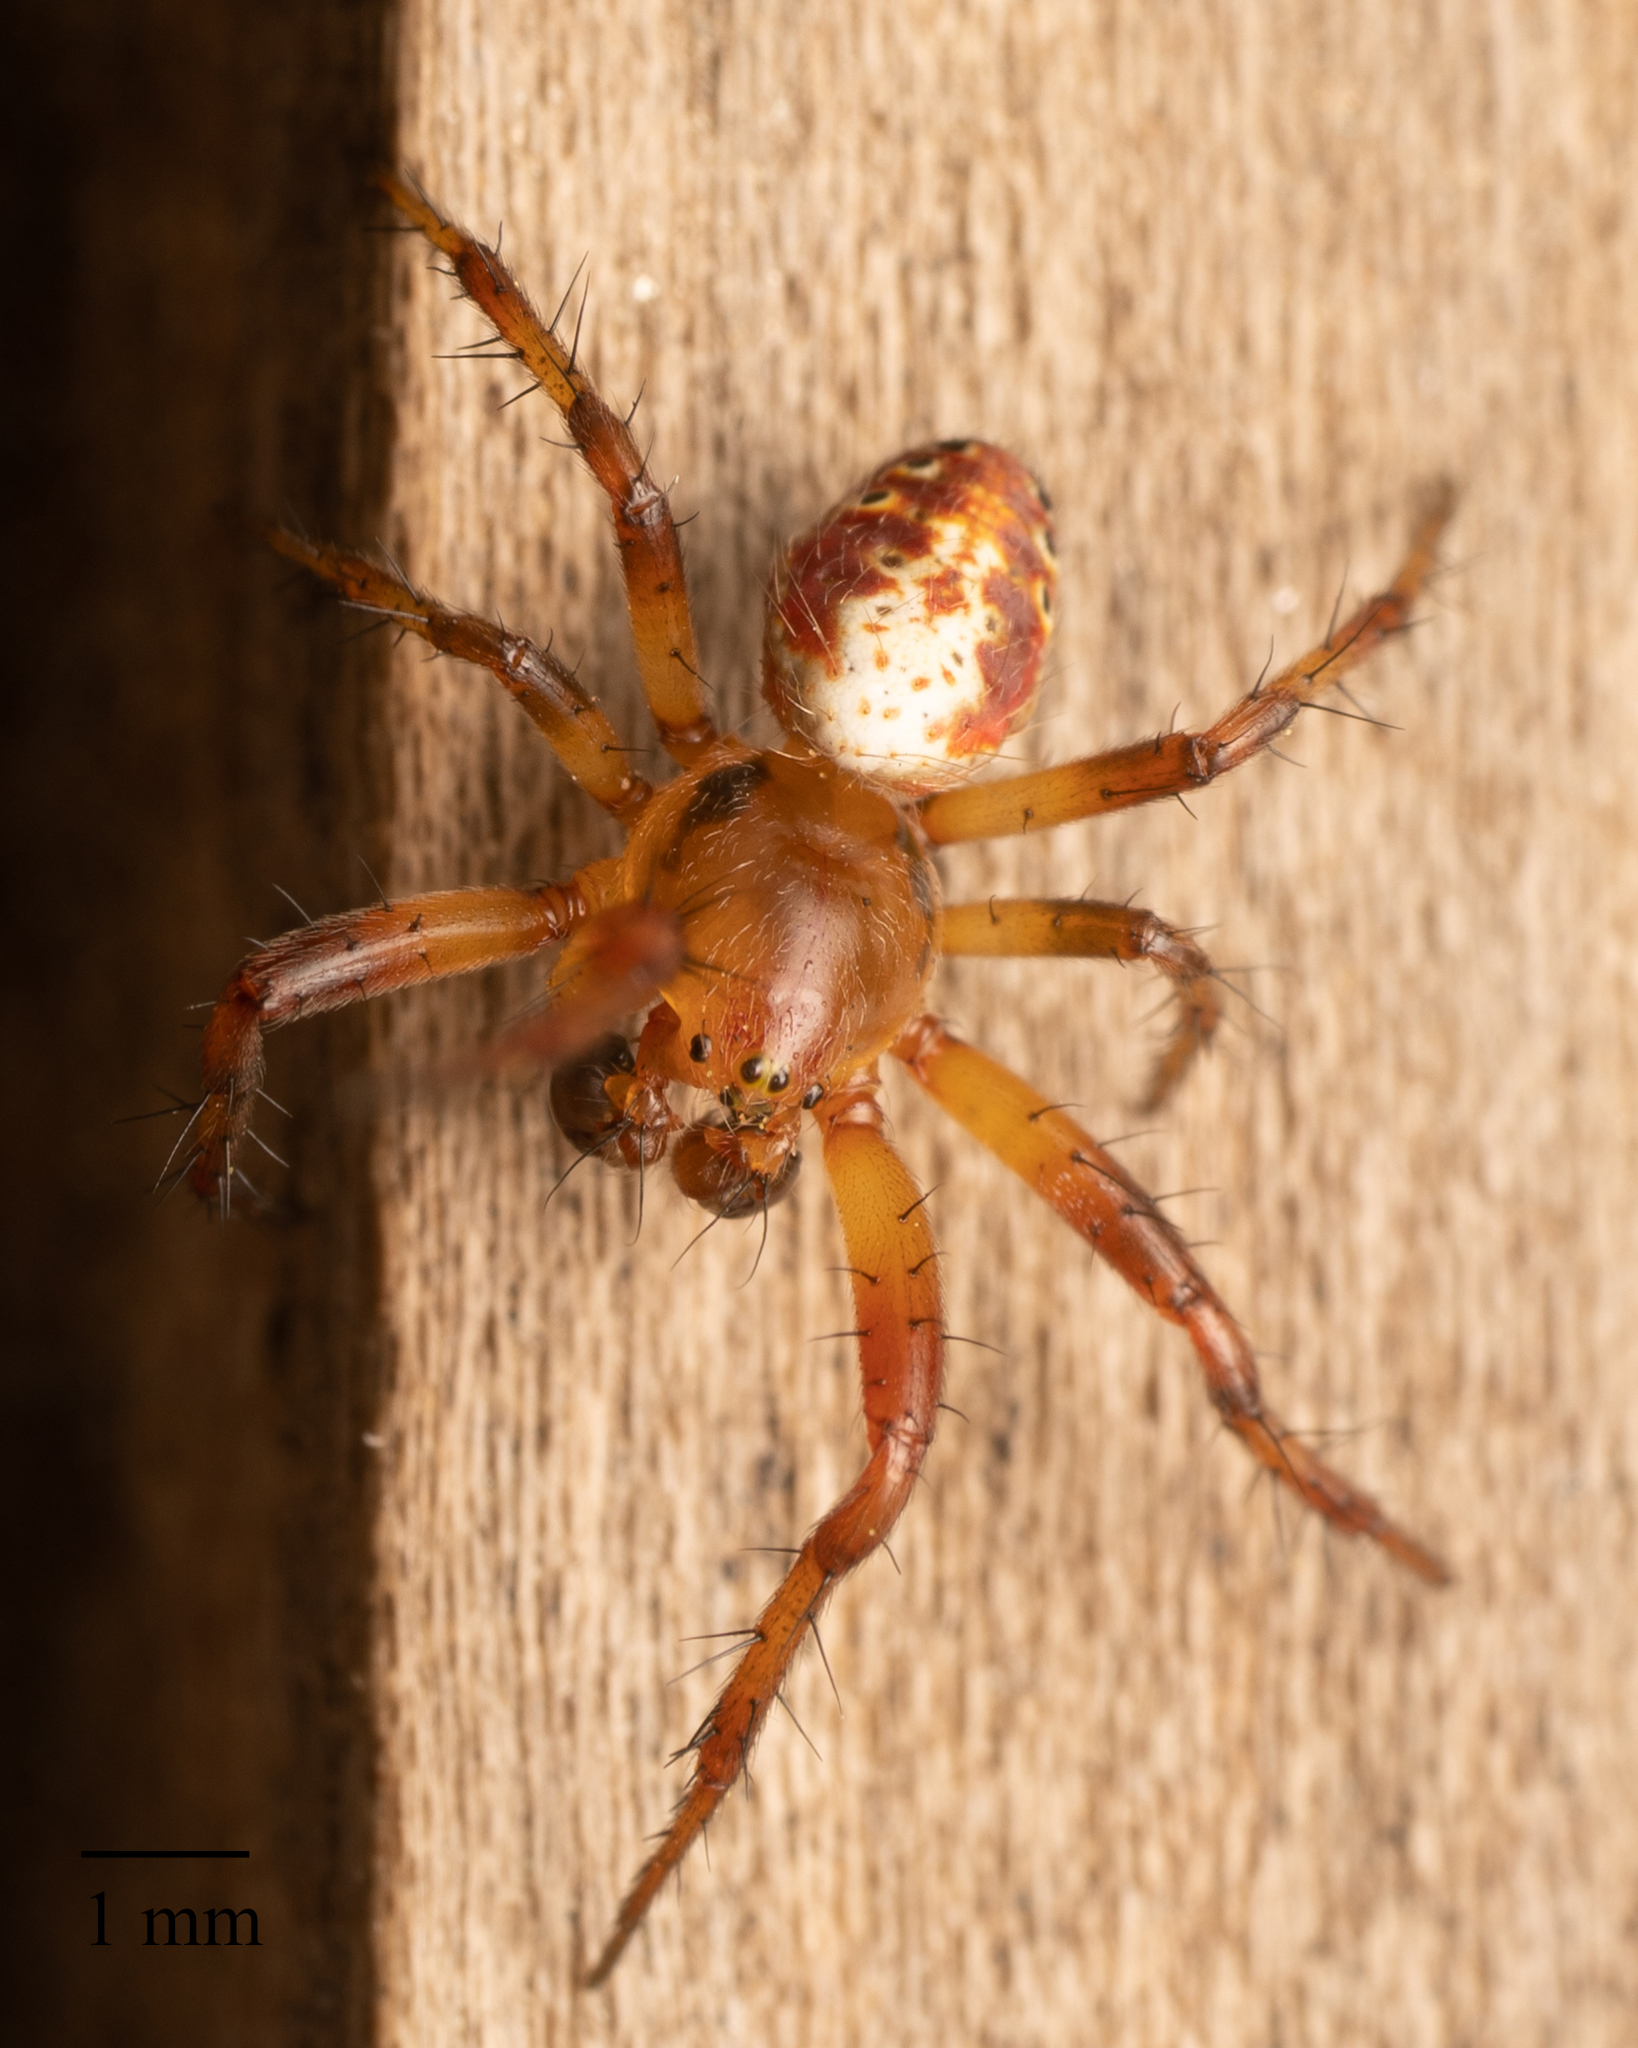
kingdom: Animalia
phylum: Arthropoda
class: Arachnida
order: Araneae
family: Araneidae
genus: Araniella
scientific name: Araniella displicata
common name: Sixspotted orb weaver
